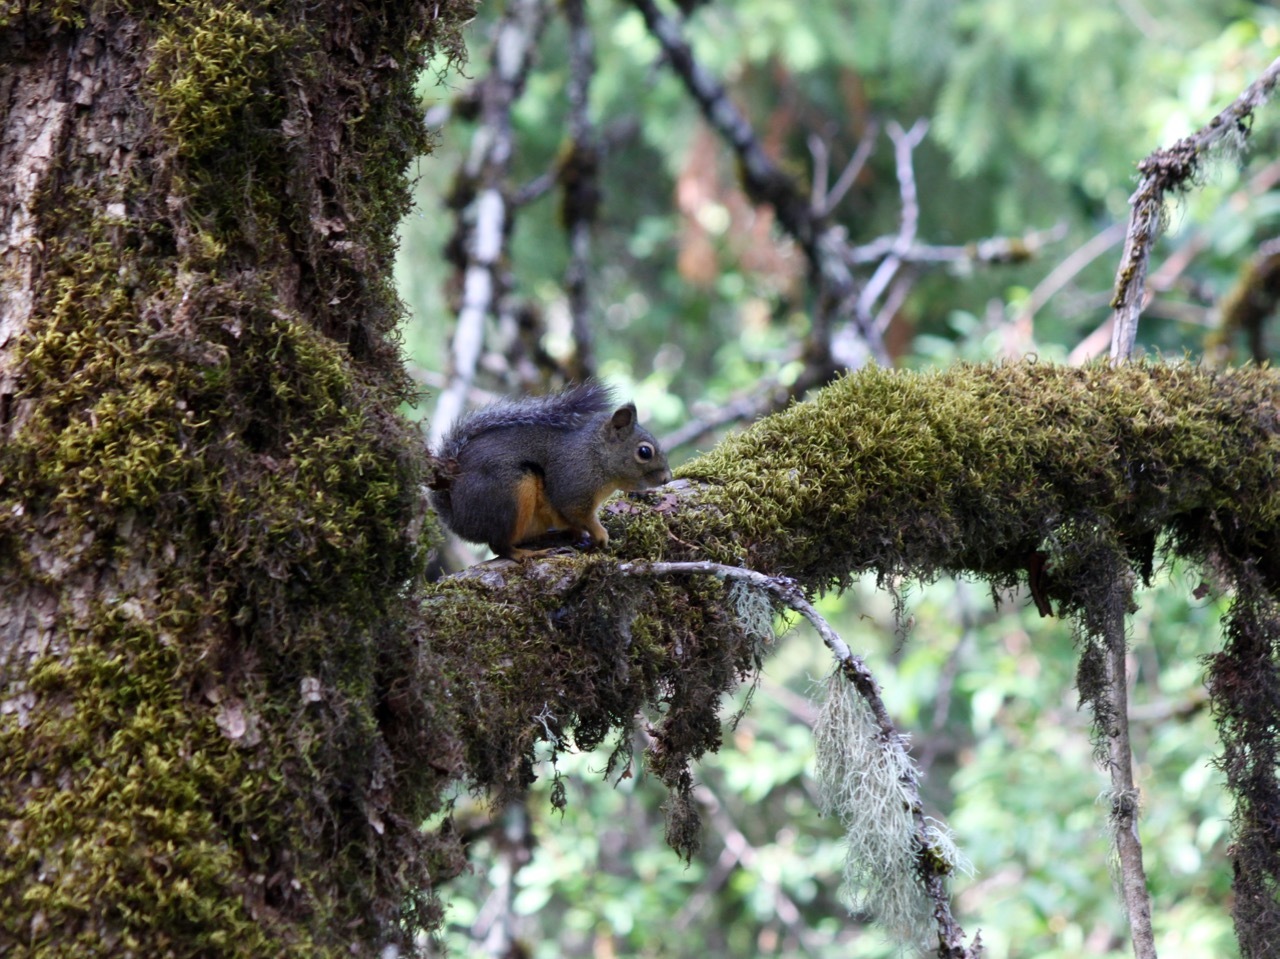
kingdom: Animalia
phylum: Chordata
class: Mammalia
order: Rodentia
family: Sciuridae
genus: Tamiasciurus
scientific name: Tamiasciurus douglasii
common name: Douglas's squirrel
